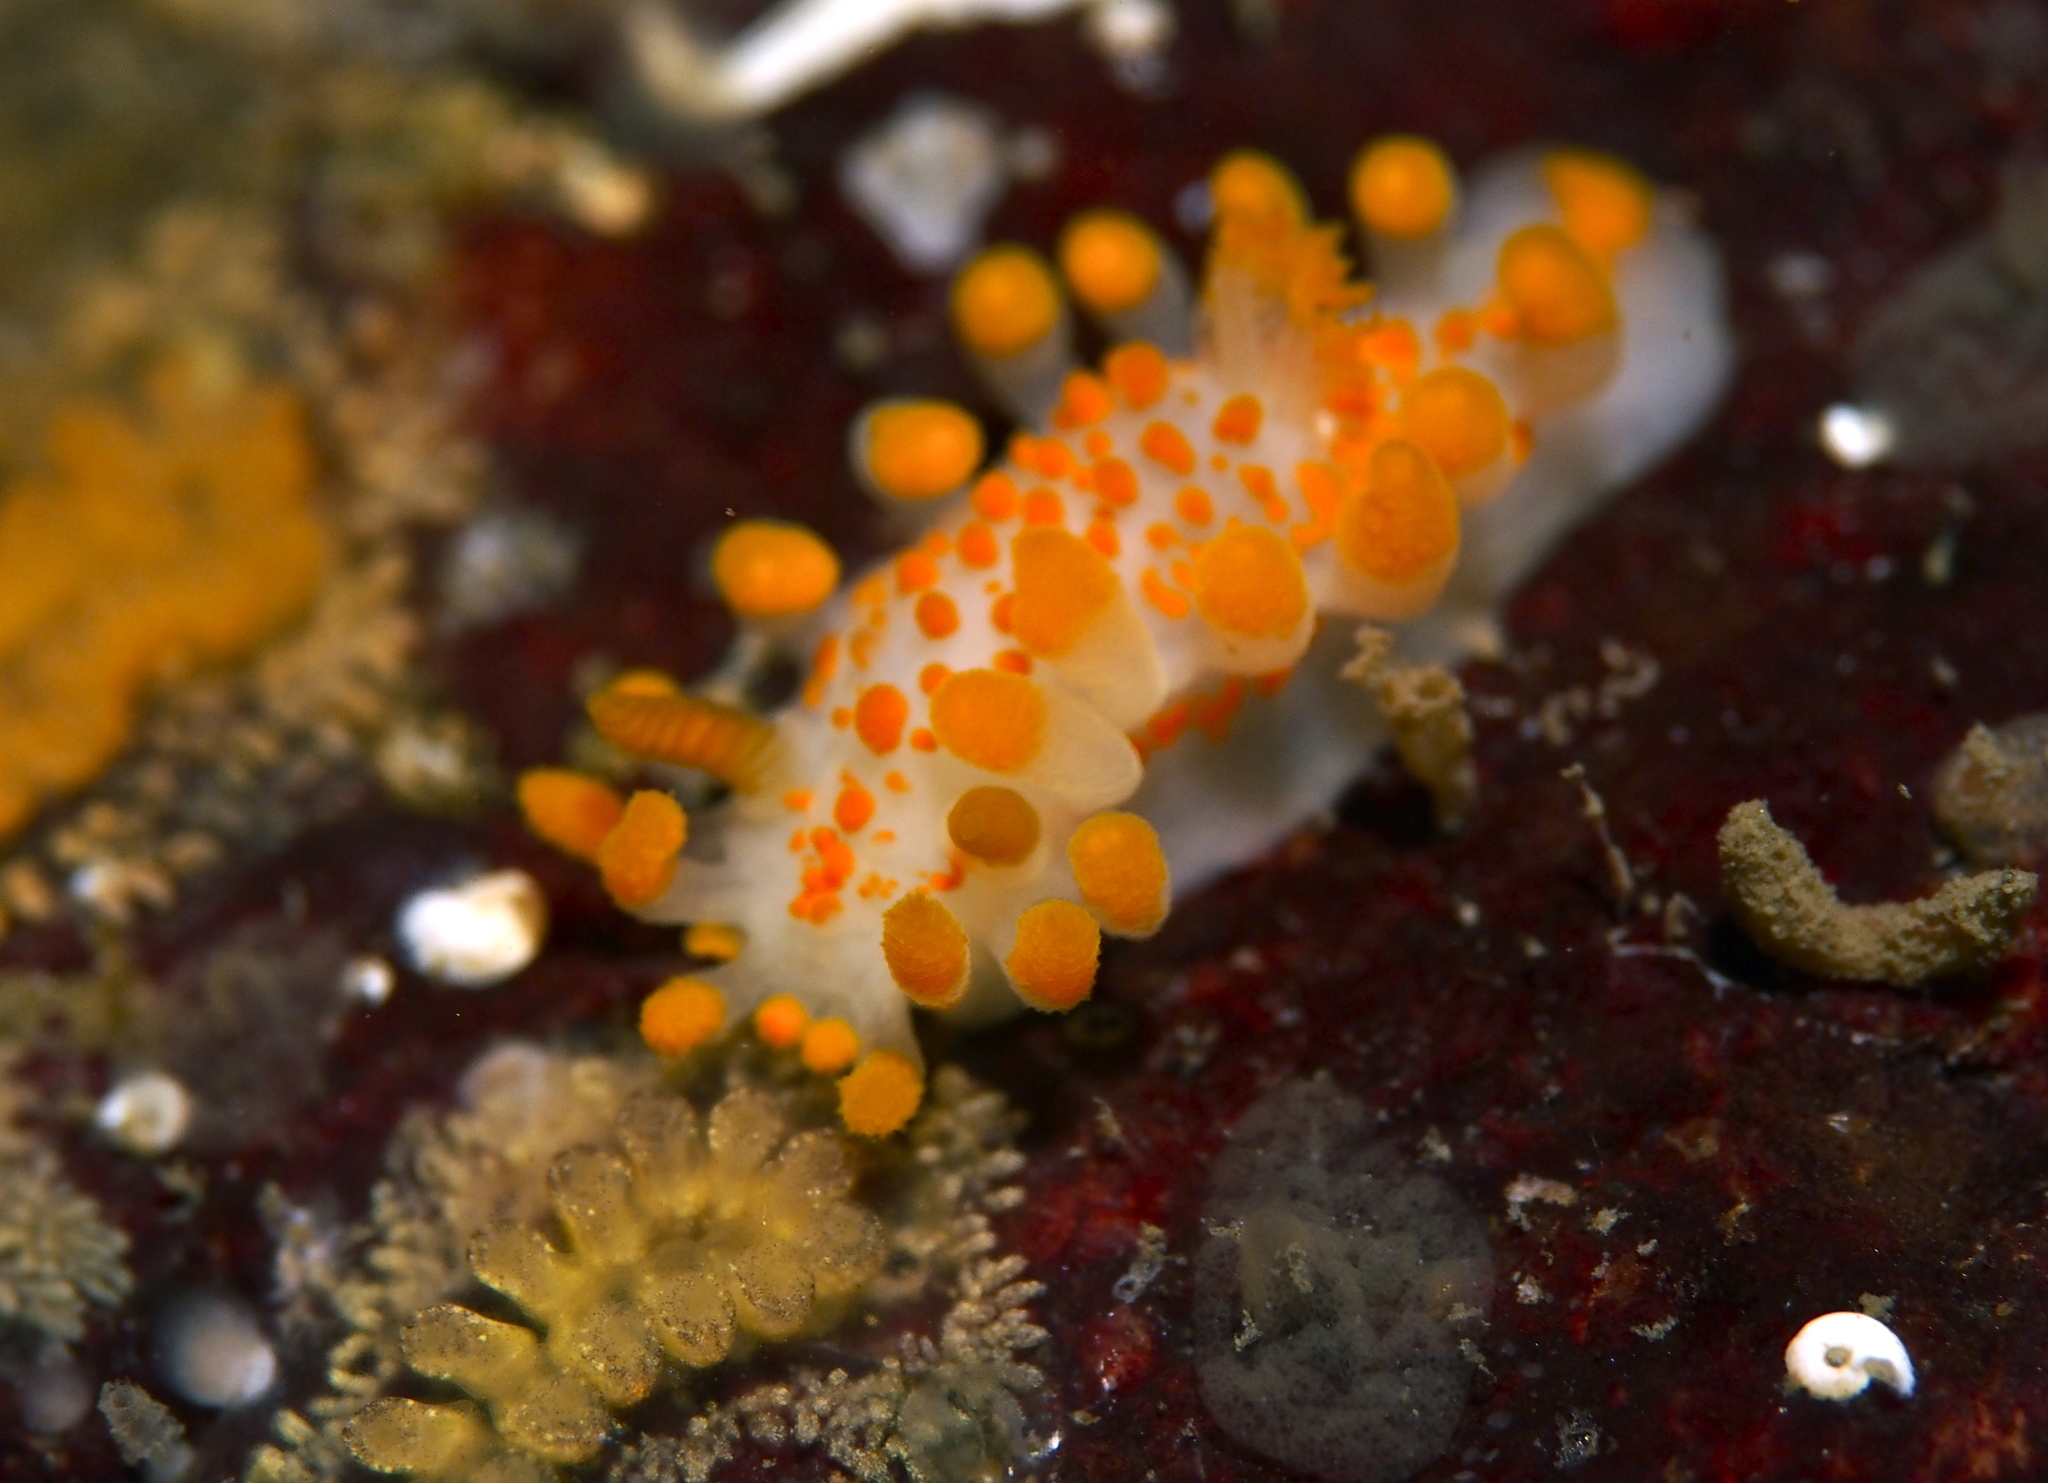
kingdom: Animalia
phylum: Mollusca
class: Gastropoda
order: Nudibranchia
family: Polyceridae
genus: Limacia
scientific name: Limacia clavigera
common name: Orange-clubbed sea slug
